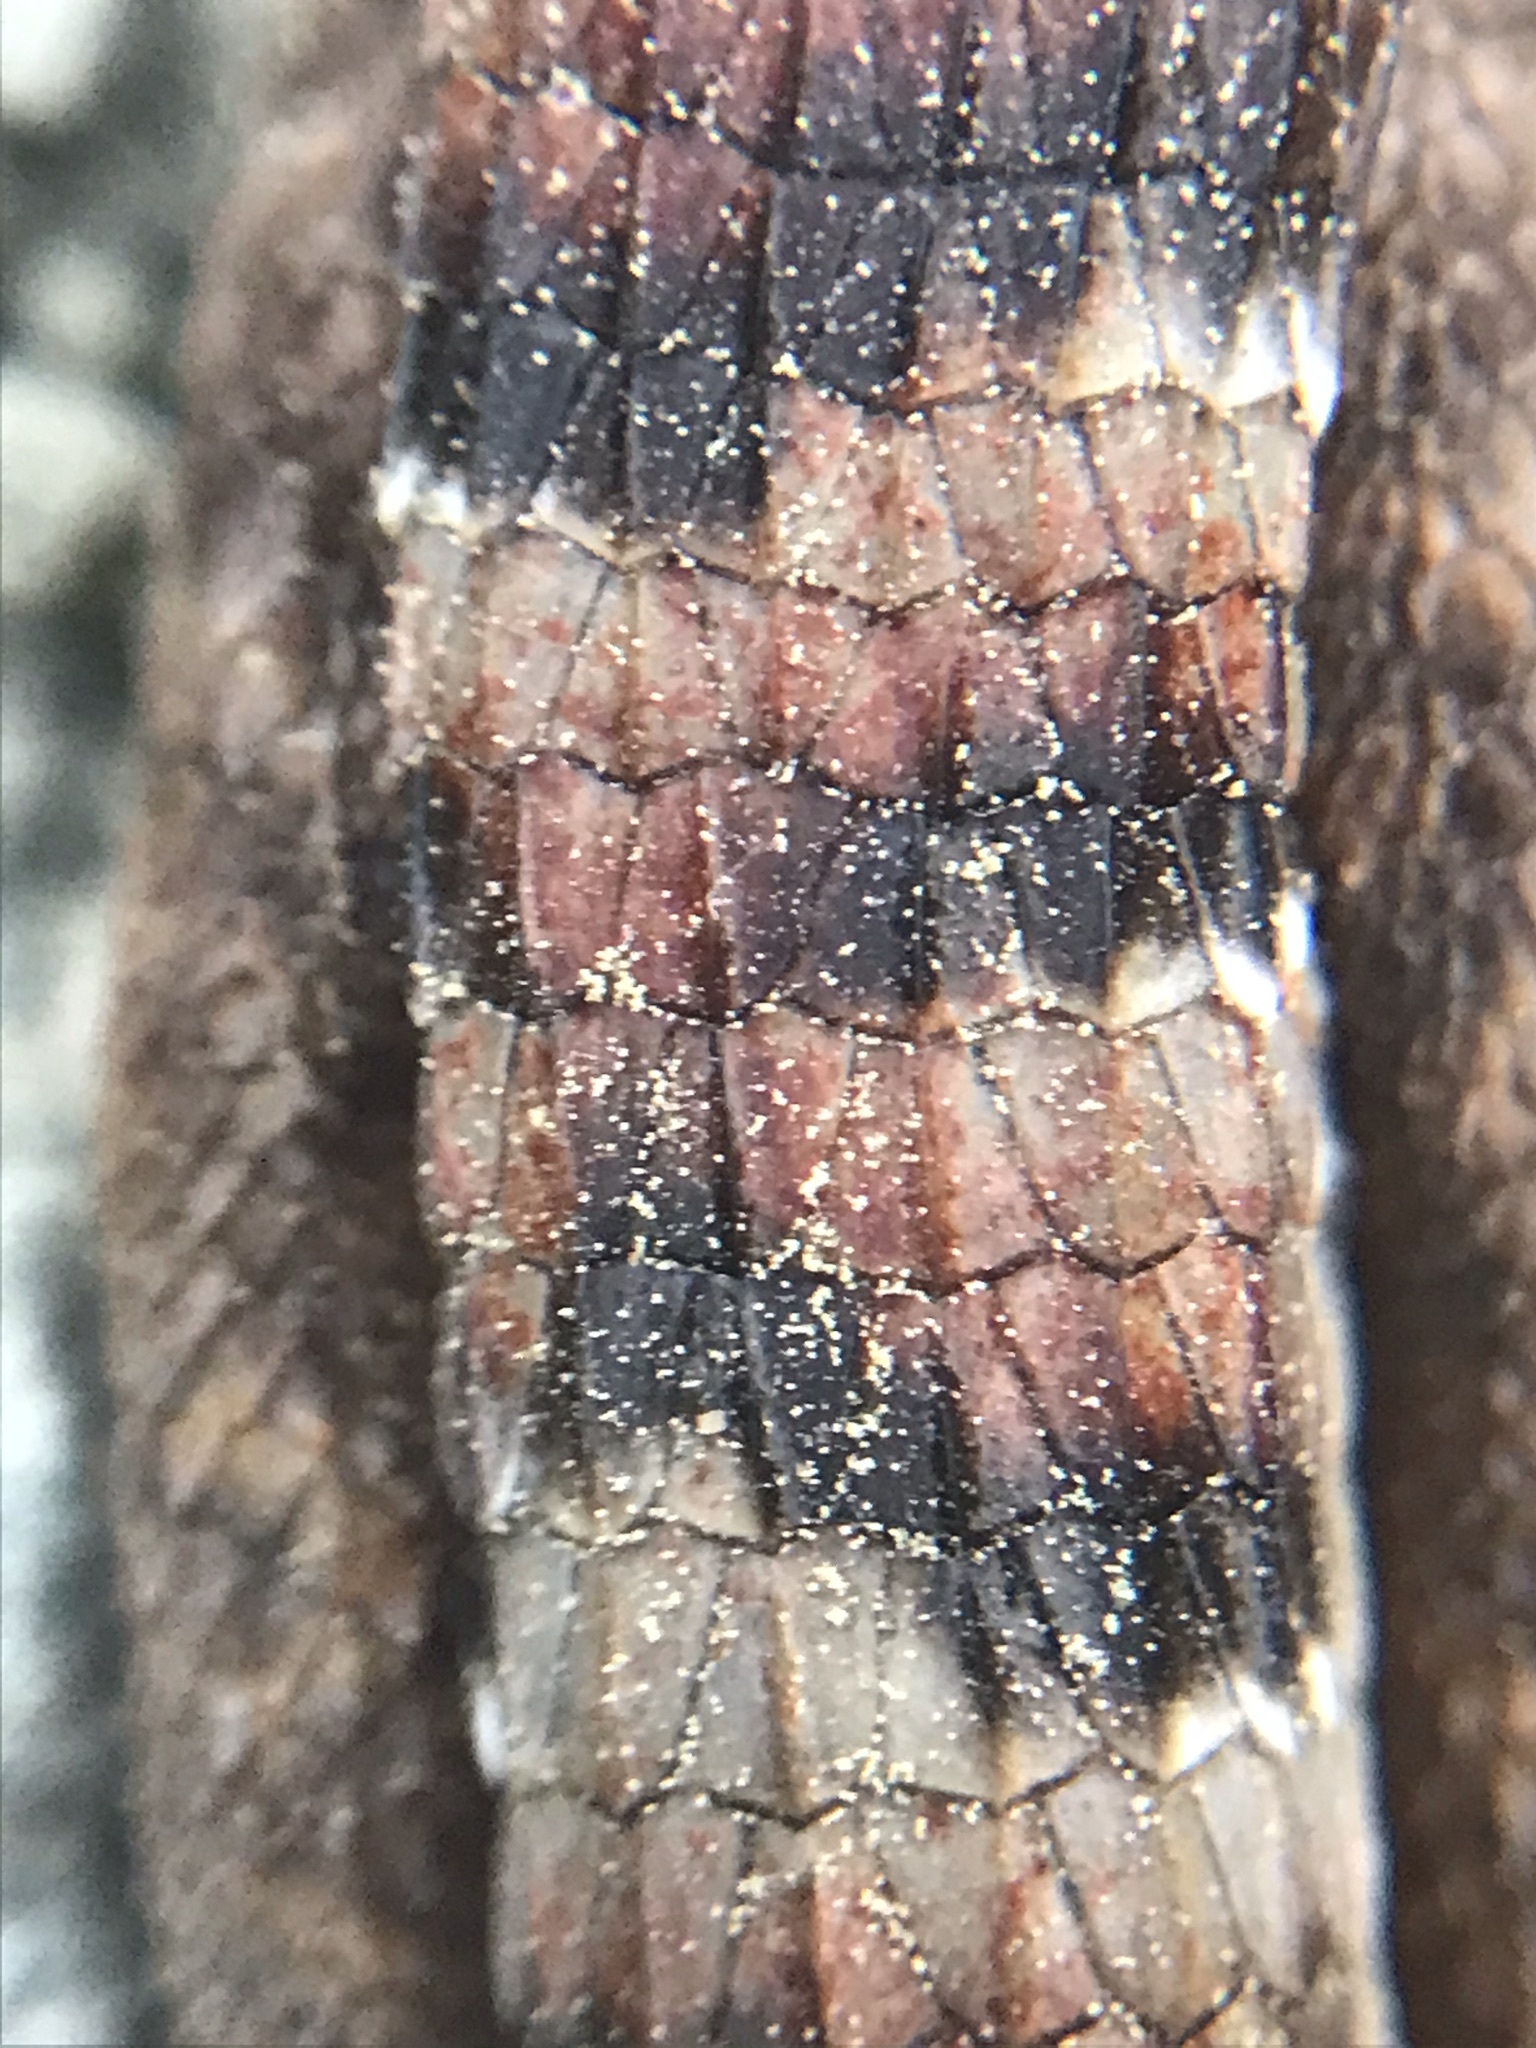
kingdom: Animalia
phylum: Chordata
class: Squamata
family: Anguidae
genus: Elgaria
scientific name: Elgaria multicarinata
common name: Southern alligator lizard
